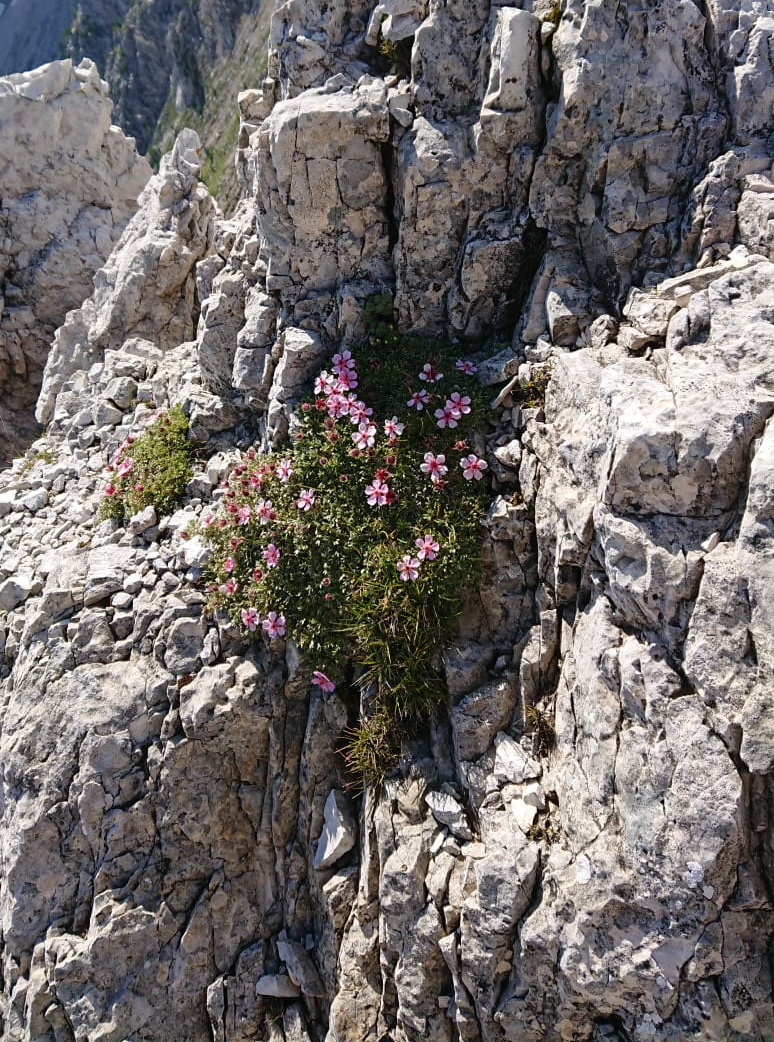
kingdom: Plantae
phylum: Tracheophyta
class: Magnoliopsida
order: Rosales
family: Rosaceae
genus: Potentilla
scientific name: Potentilla nitida
